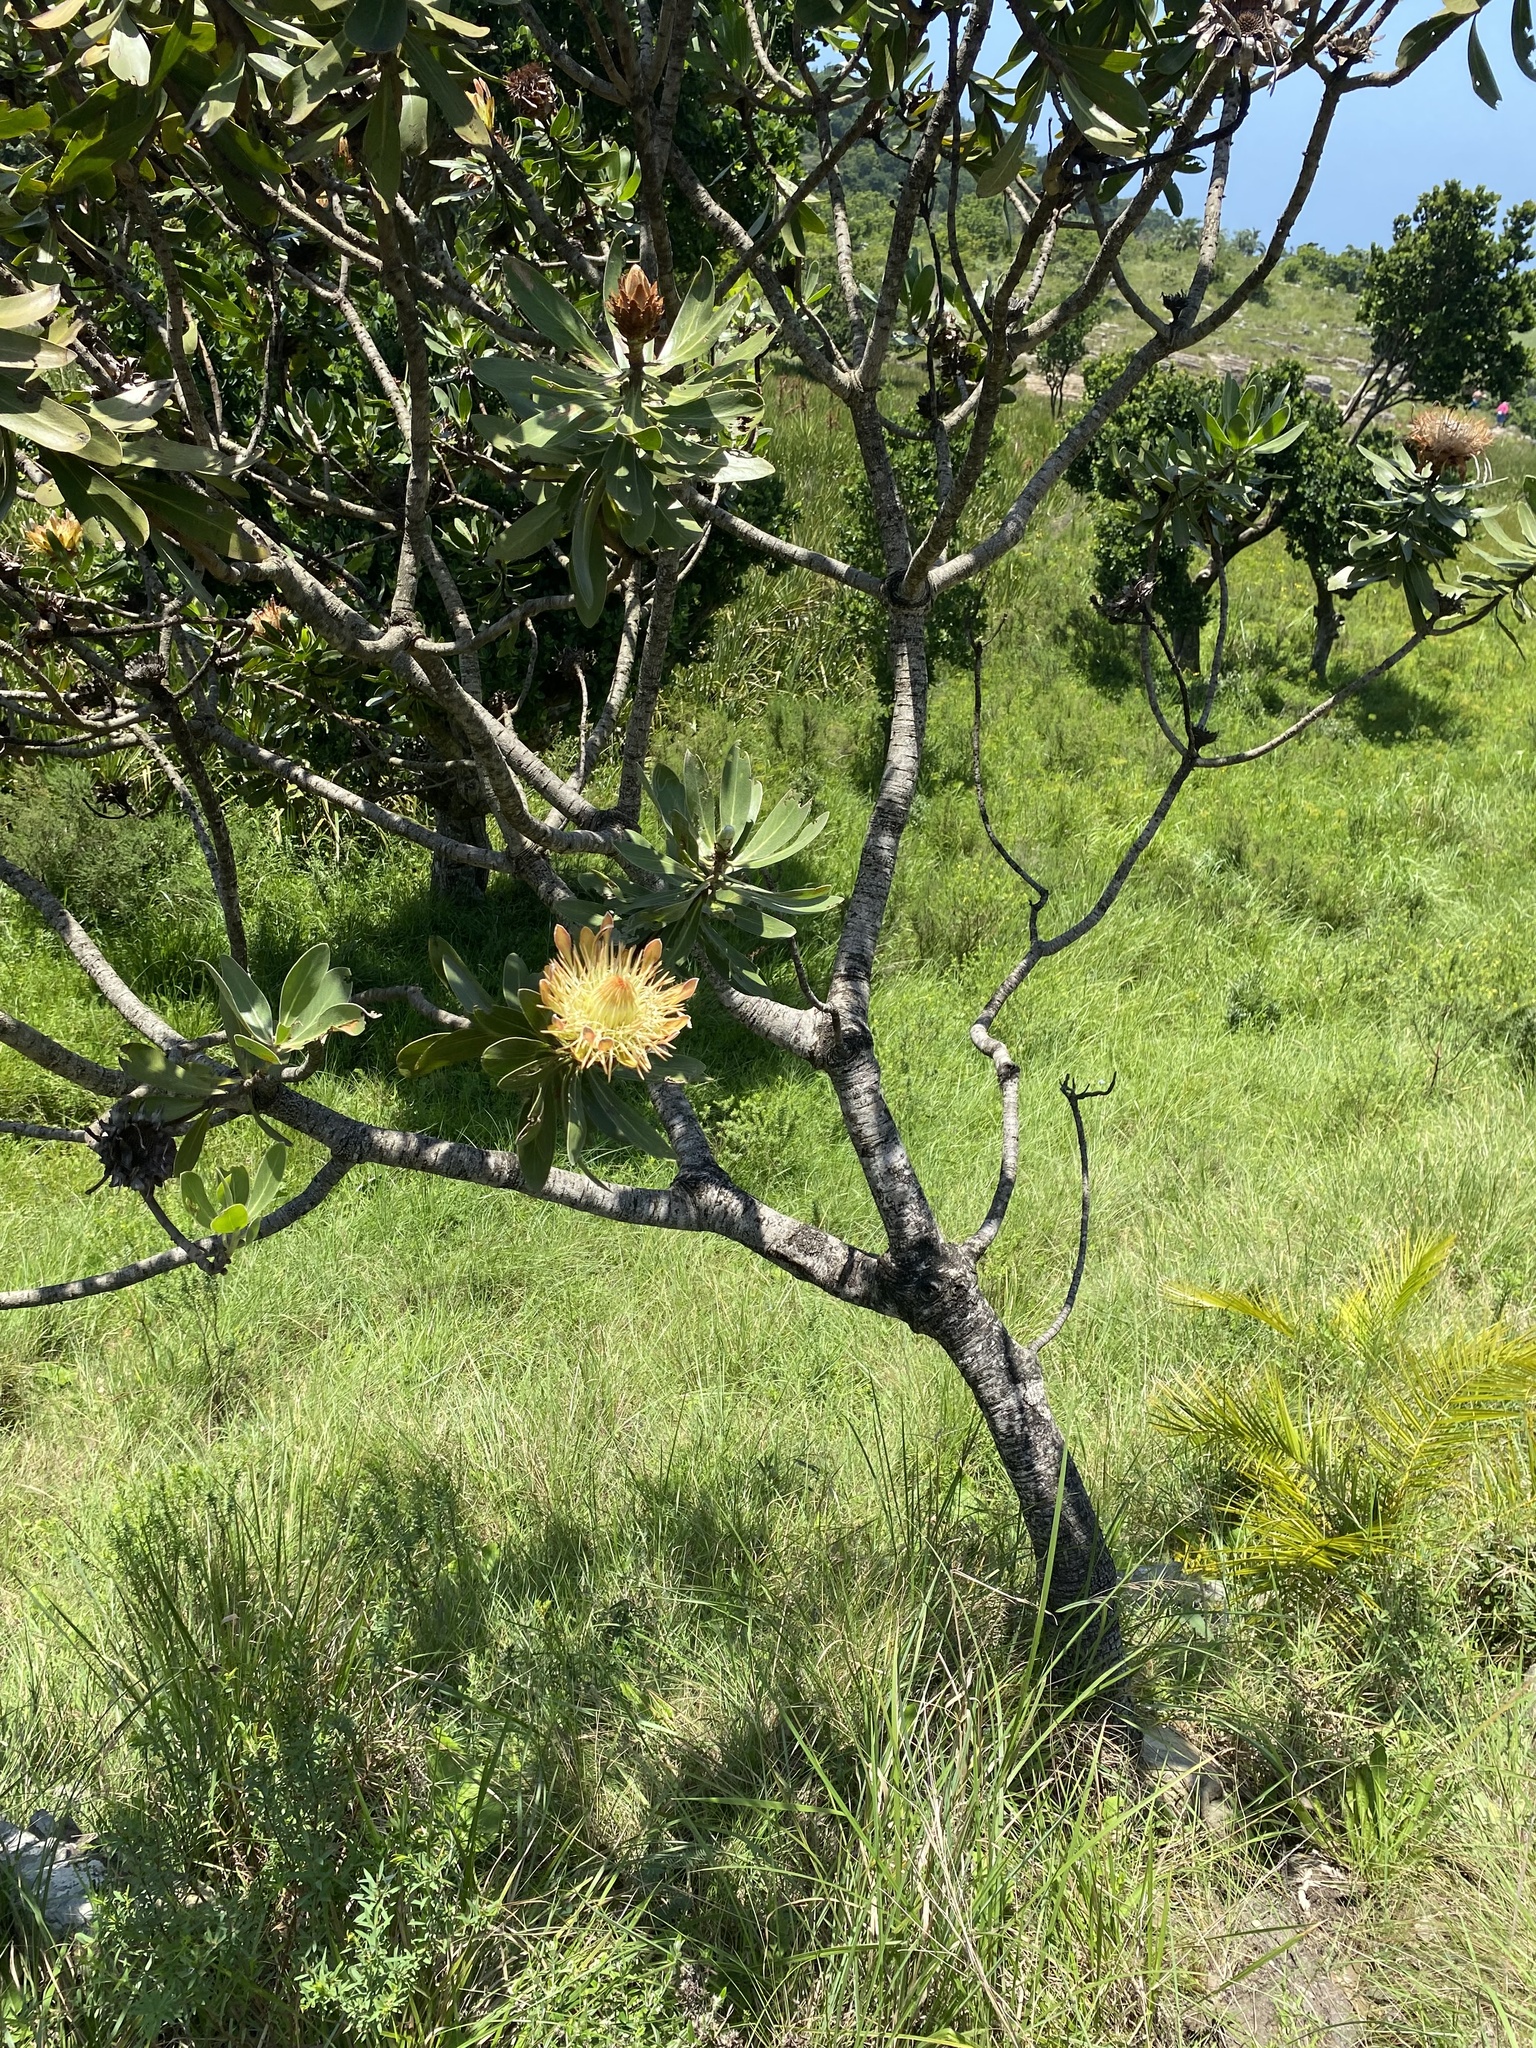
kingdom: Plantae
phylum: Tracheophyta
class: Magnoliopsida
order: Proteales
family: Proteaceae
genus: Protea
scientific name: Protea roupelliae
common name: Silver sugarbush
